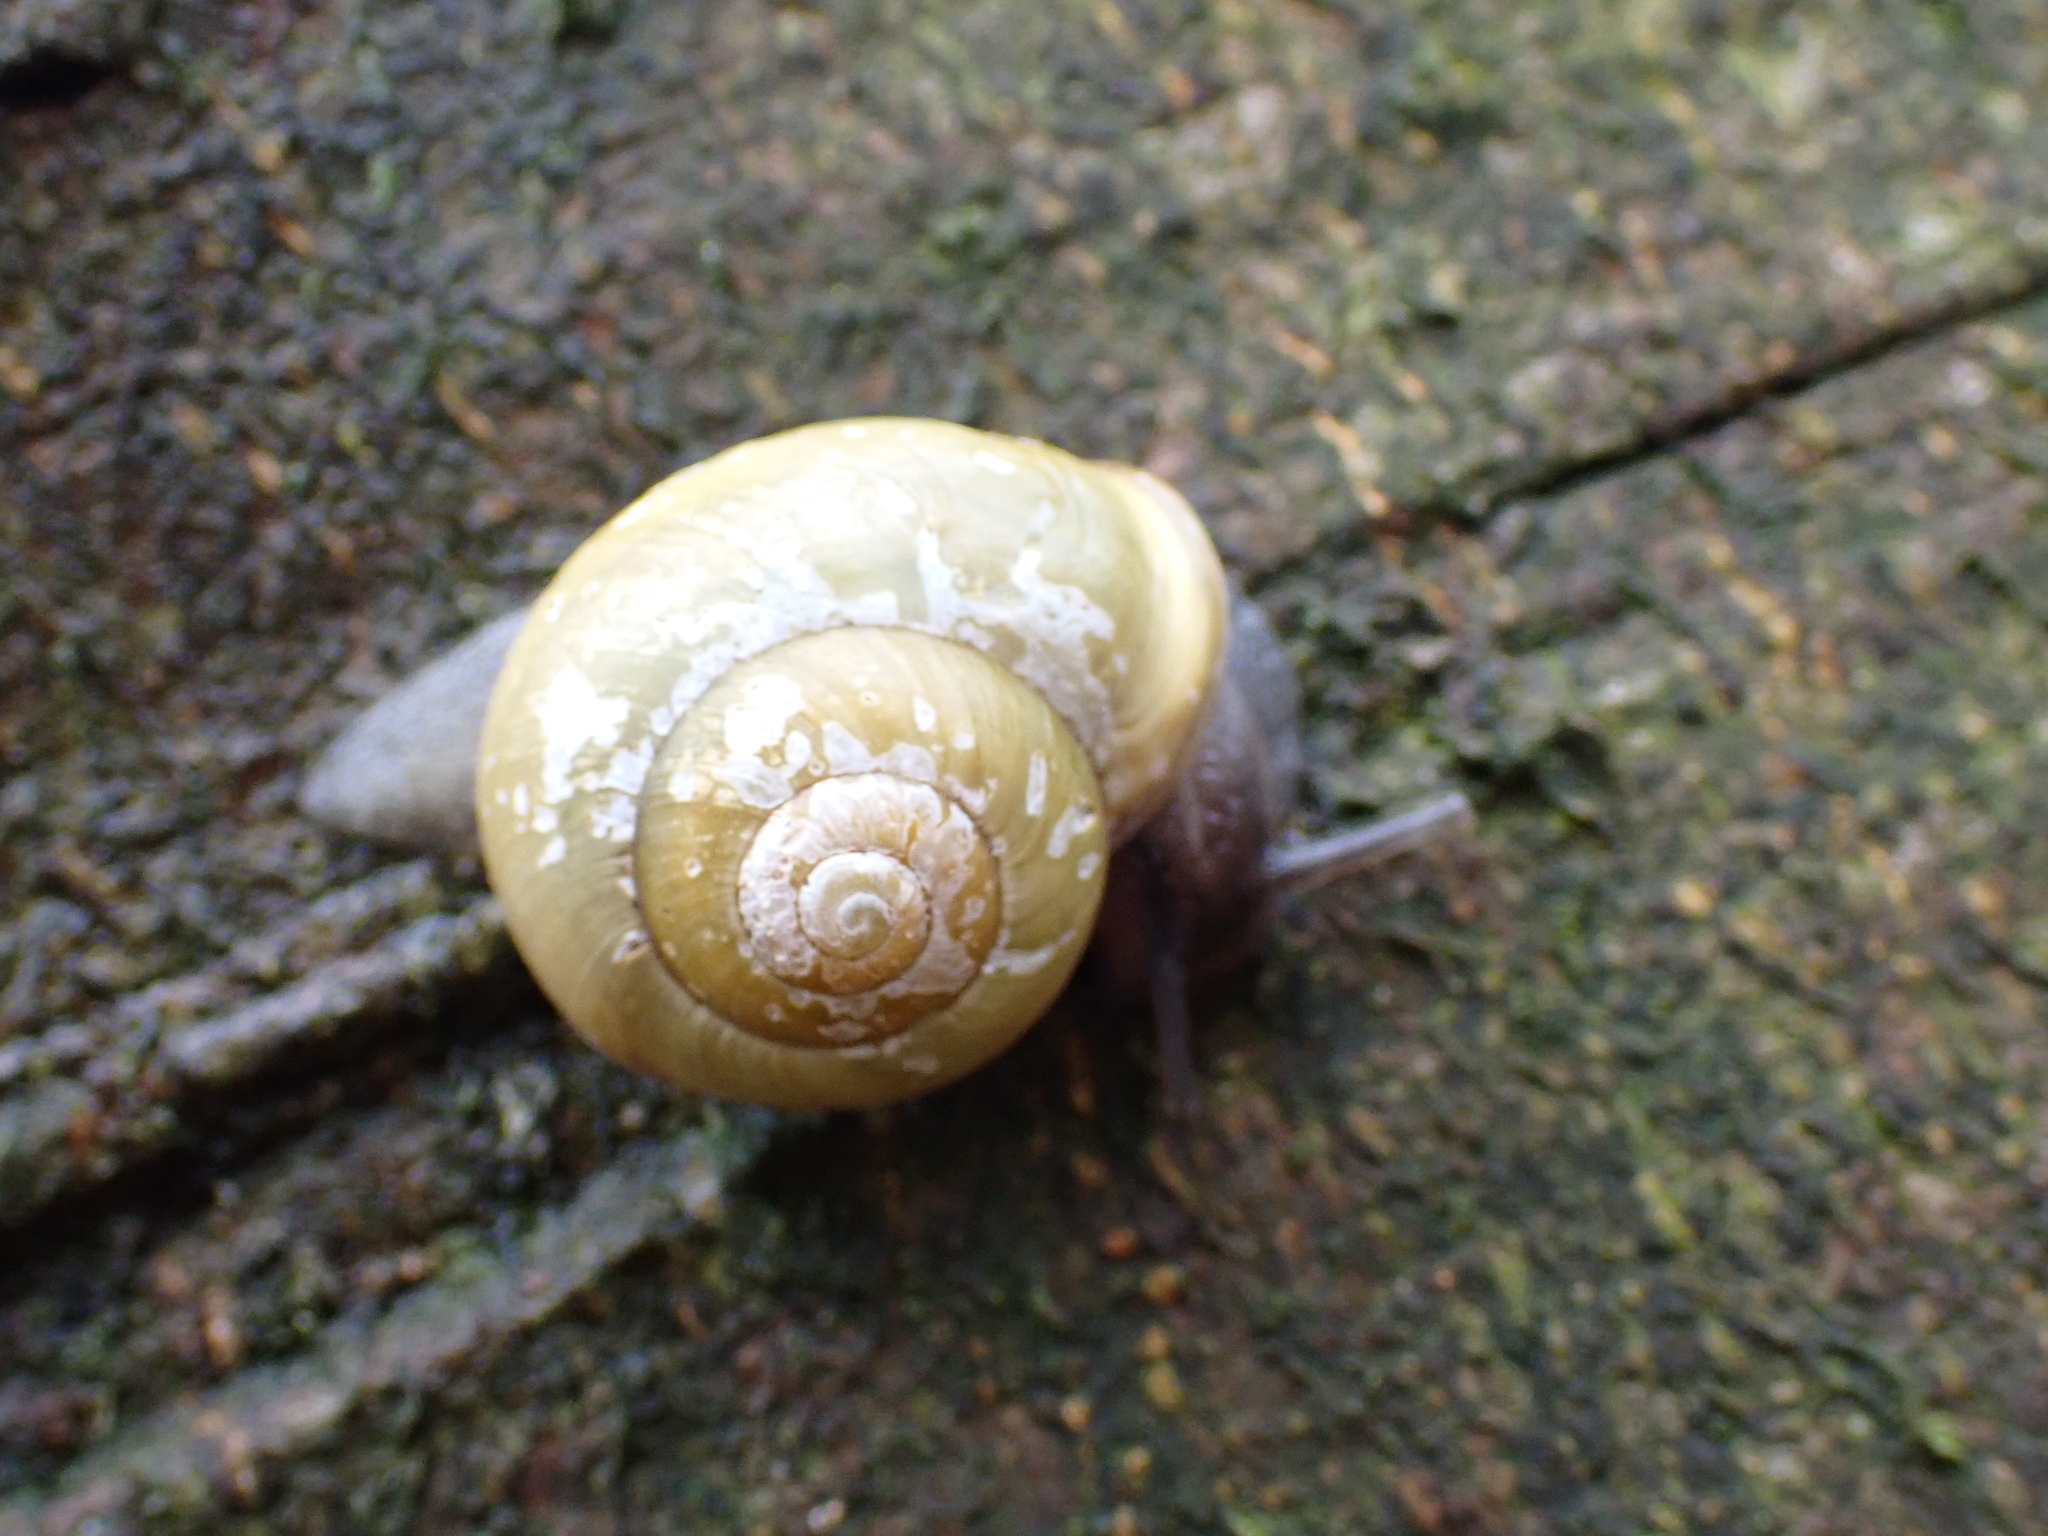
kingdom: Animalia
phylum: Mollusca
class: Gastropoda
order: Stylommatophora
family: Helicidae
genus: Cepaea
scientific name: Cepaea hortensis
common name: White-lip gardensnail
